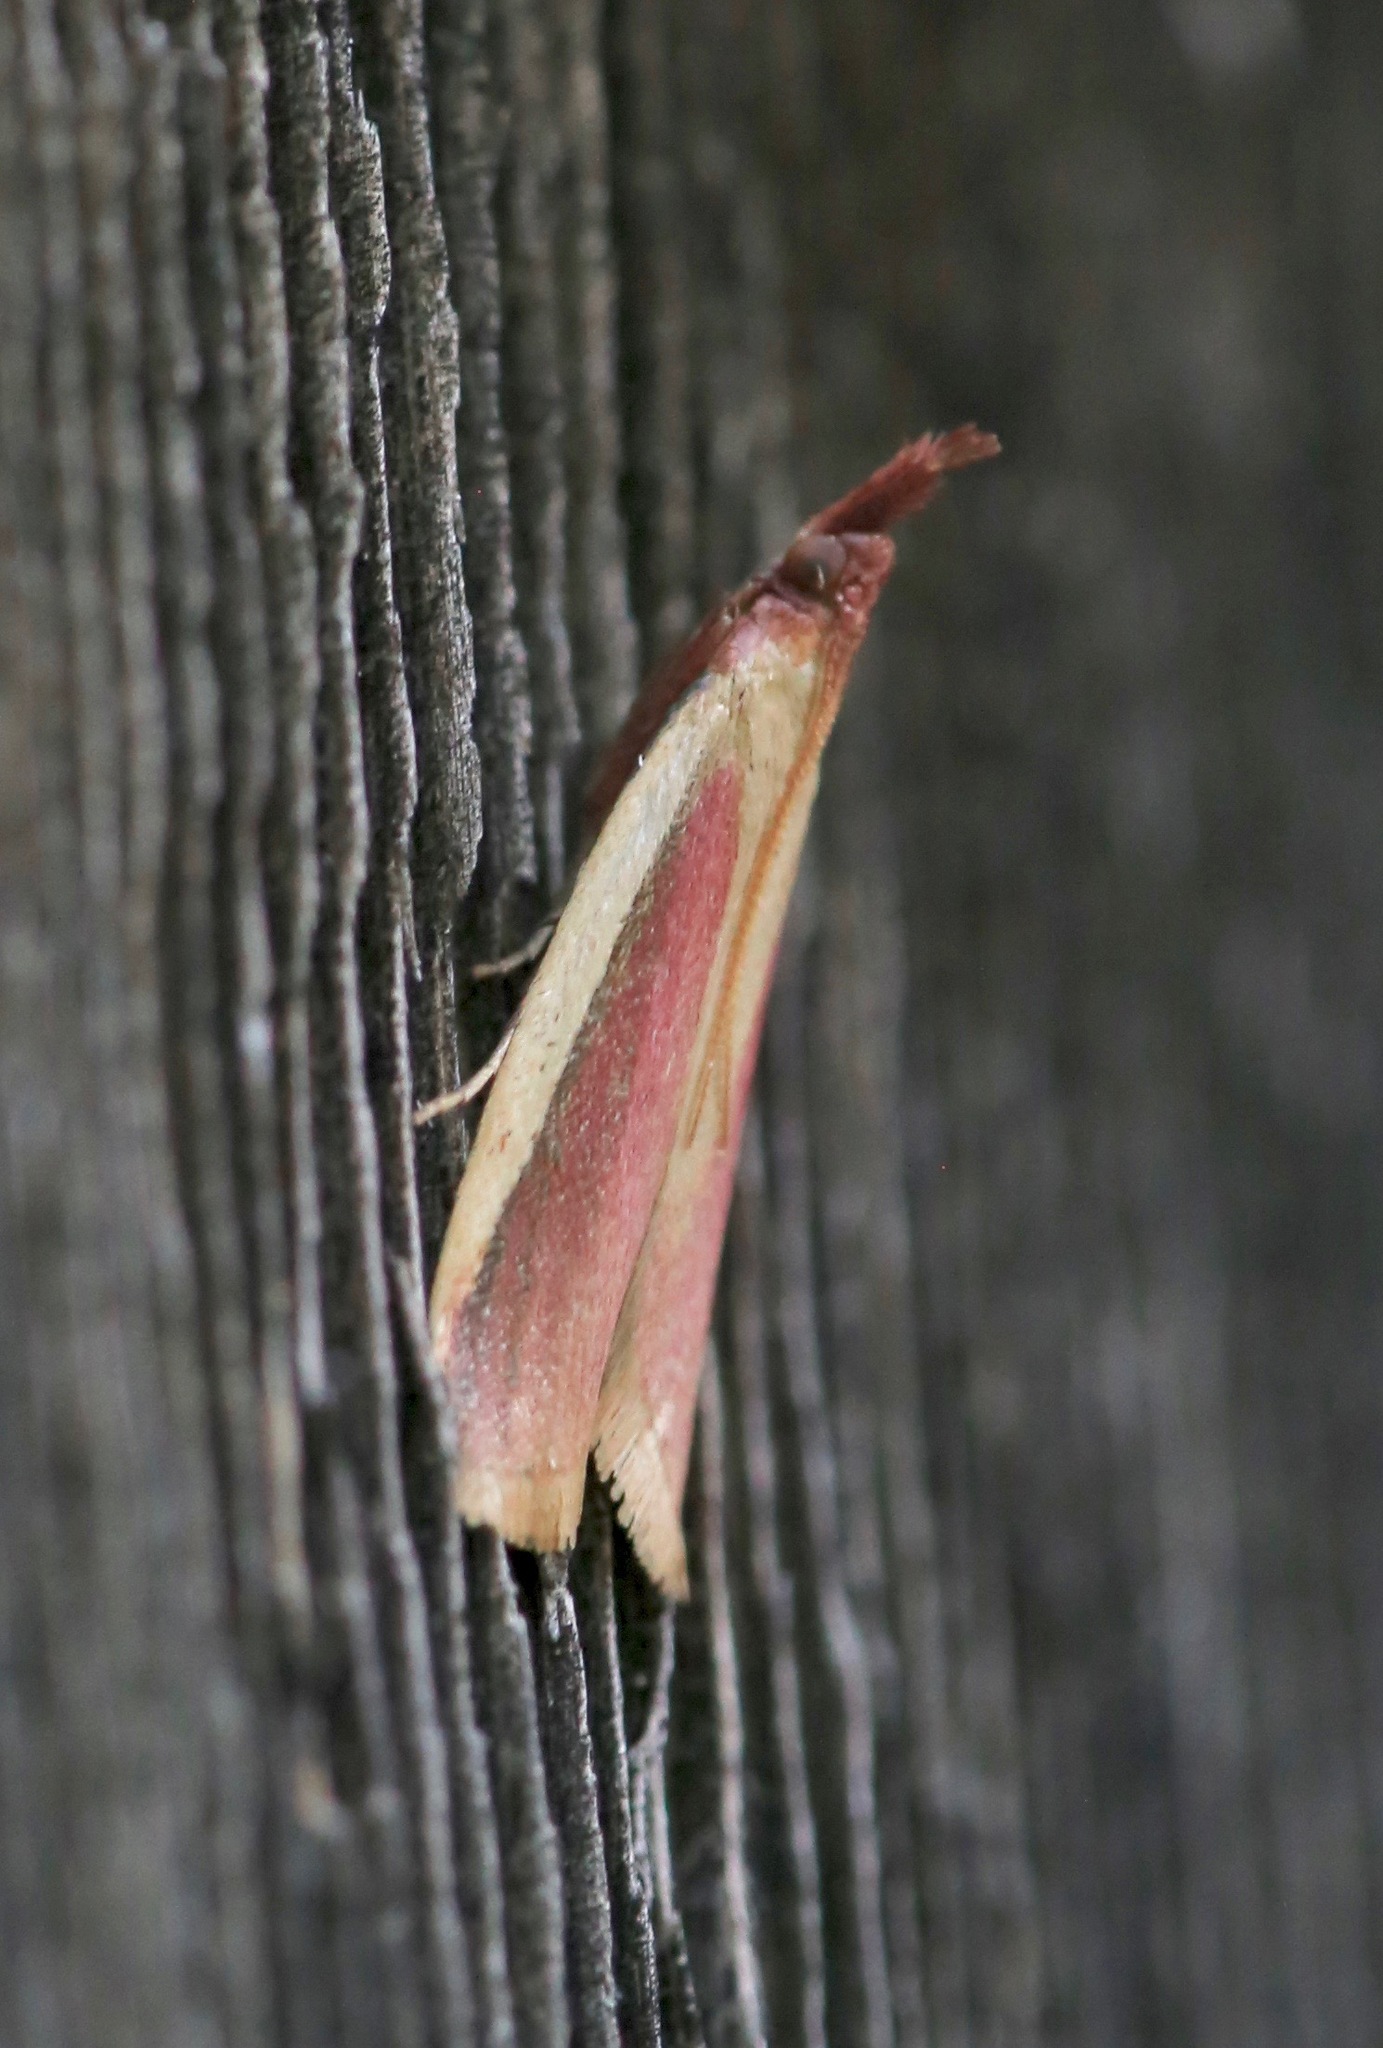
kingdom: Animalia
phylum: Arthropoda
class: Insecta
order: Lepidoptera
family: Pyralidae
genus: Peoria
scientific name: Peoria approximella
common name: Carmine snout
